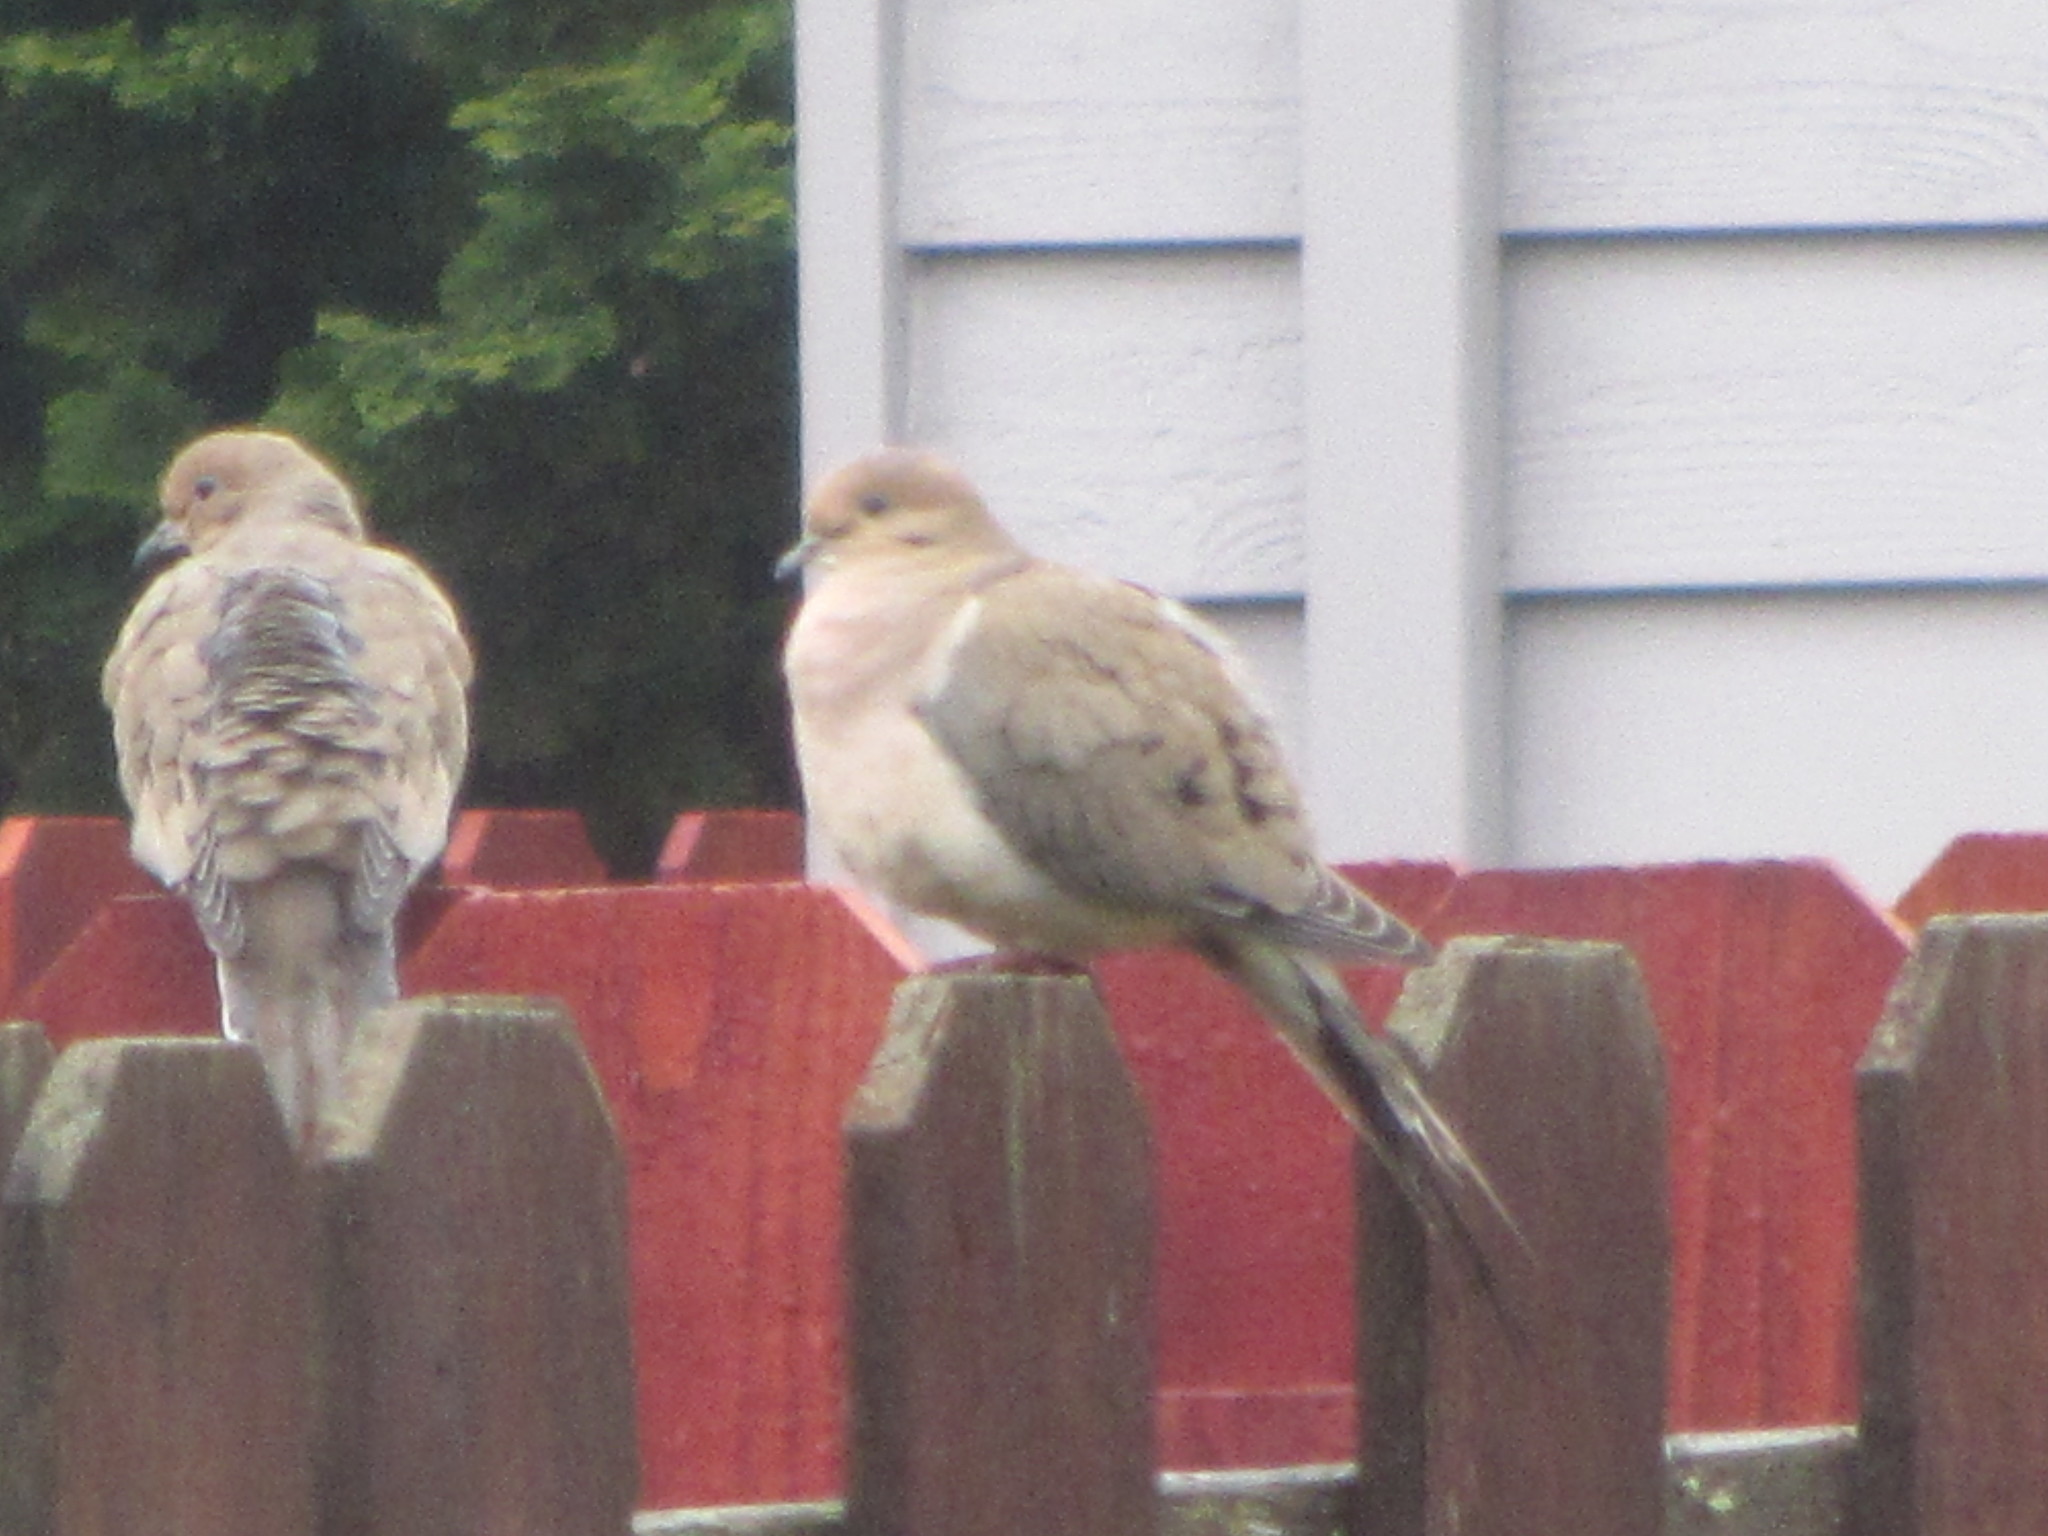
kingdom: Animalia
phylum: Chordata
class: Aves
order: Columbiformes
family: Columbidae
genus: Zenaida
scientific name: Zenaida macroura
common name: Mourning dove
